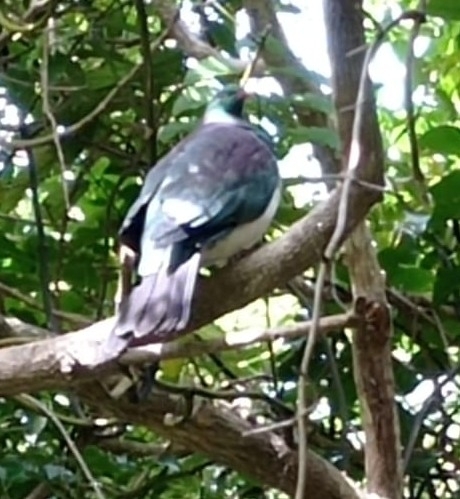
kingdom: Animalia
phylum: Chordata
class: Aves
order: Columbiformes
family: Columbidae
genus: Hemiphaga
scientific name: Hemiphaga novaeseelandiae
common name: New zealand pigeon
